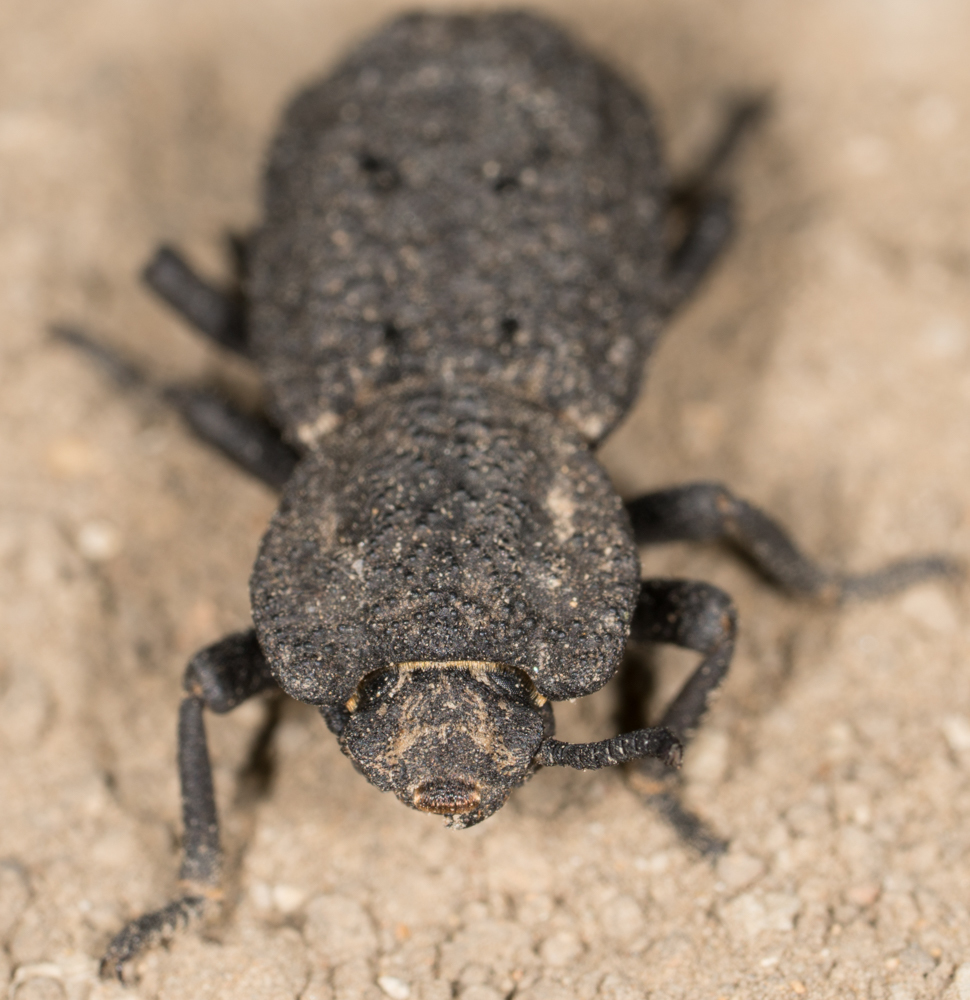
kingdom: Animalia
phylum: Arthropoda
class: Insecta
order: Coleoptera
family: Zopheridae
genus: Phloeodes
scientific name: Phloeodes diabolicus
